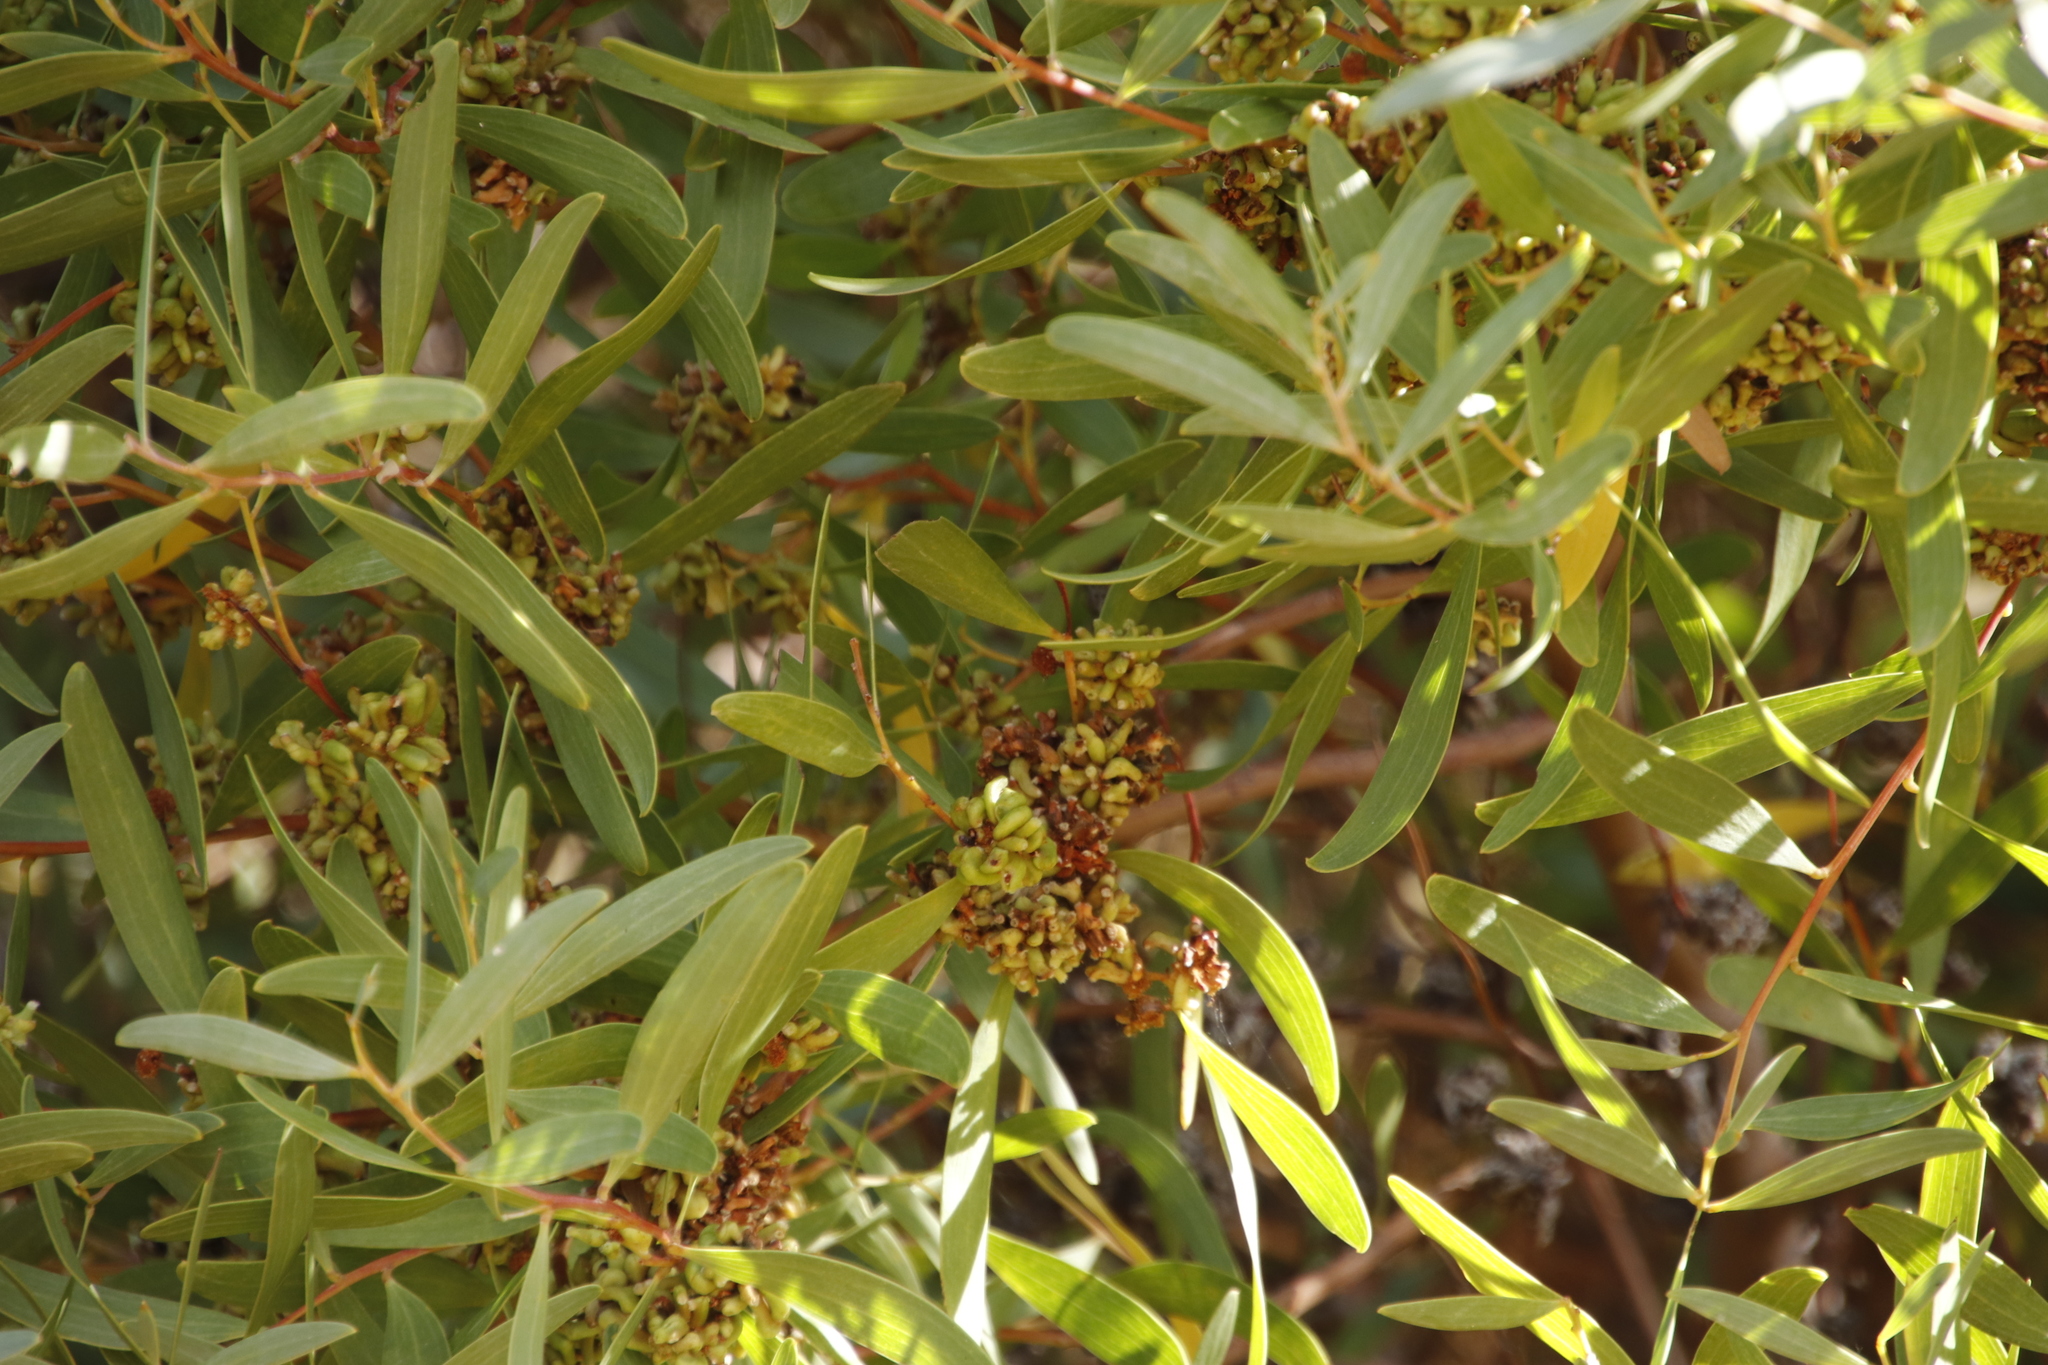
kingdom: Plantae
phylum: Tracheophyta
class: Magnoliopsida
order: Fabales
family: Fabaceae
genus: Acacia
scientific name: Acacia cyclops
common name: Coastal wattle
